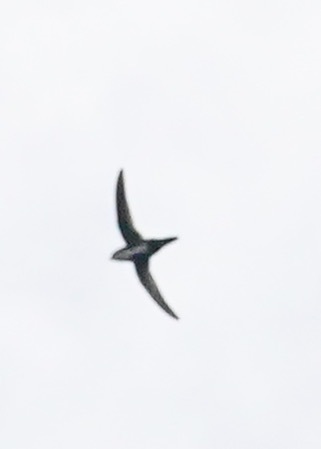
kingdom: Animalia
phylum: Chordata
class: Aves
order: Apodiformes
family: Apodidae
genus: Aeronautes
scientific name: Aeronautes saxatalis
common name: White-throated swift
